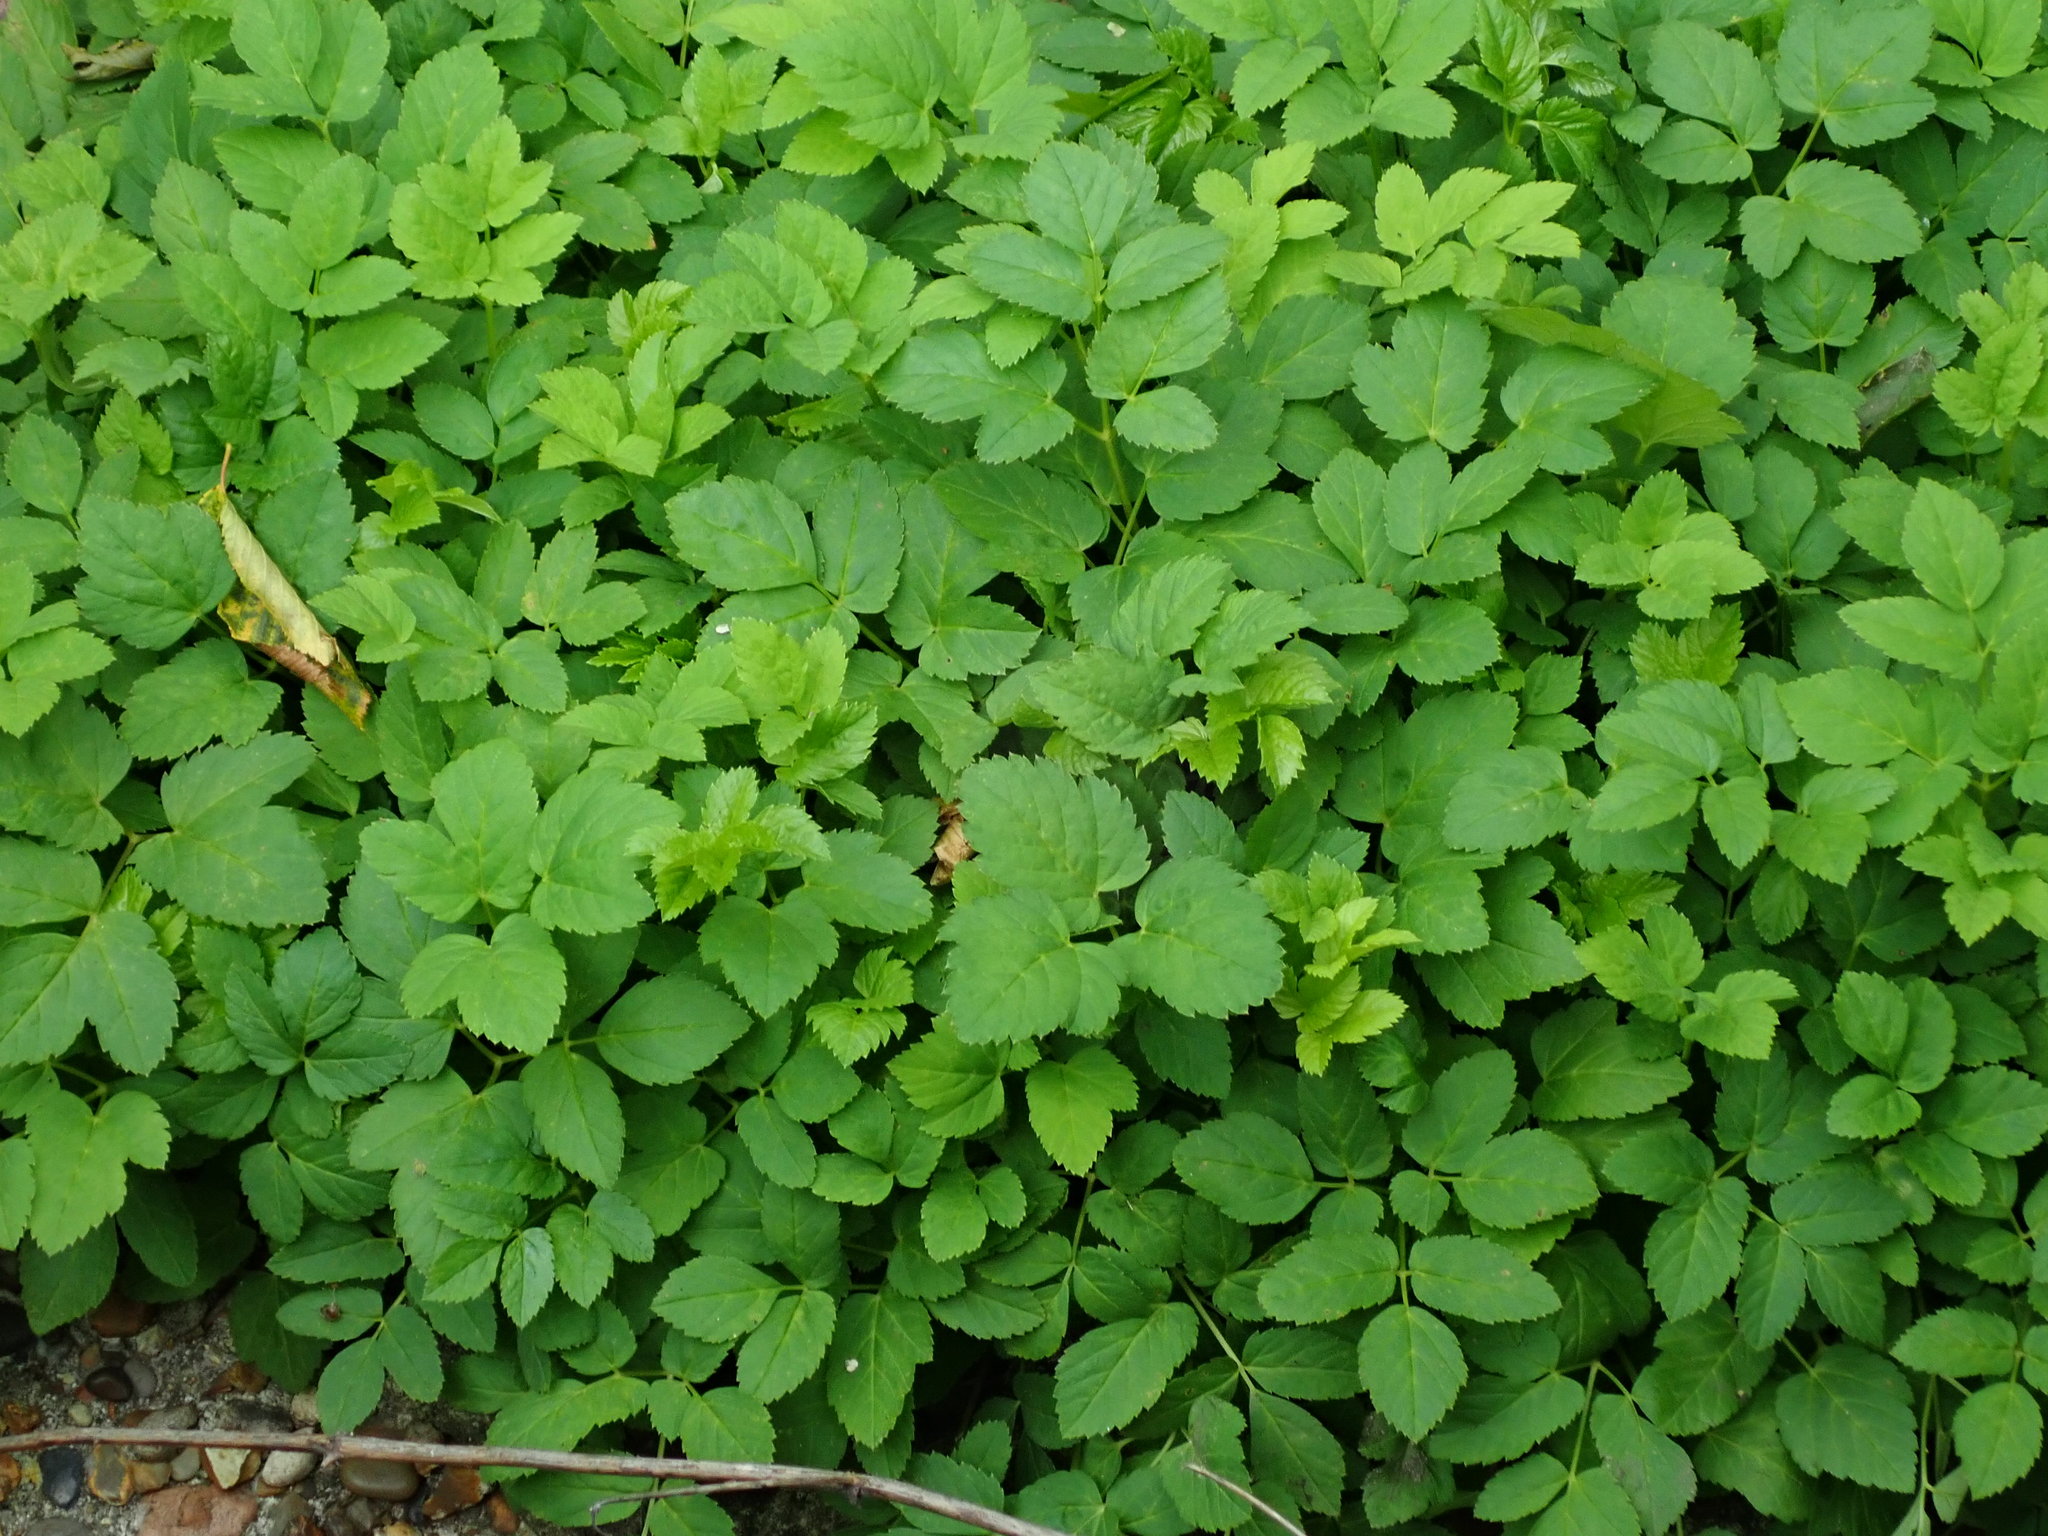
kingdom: Plantae
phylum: Tracheophyta
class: Magnoliopsida
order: Apiales
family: Apiaceae
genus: Aegopodium
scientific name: Aegopodium podagraria
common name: Ground-elder
